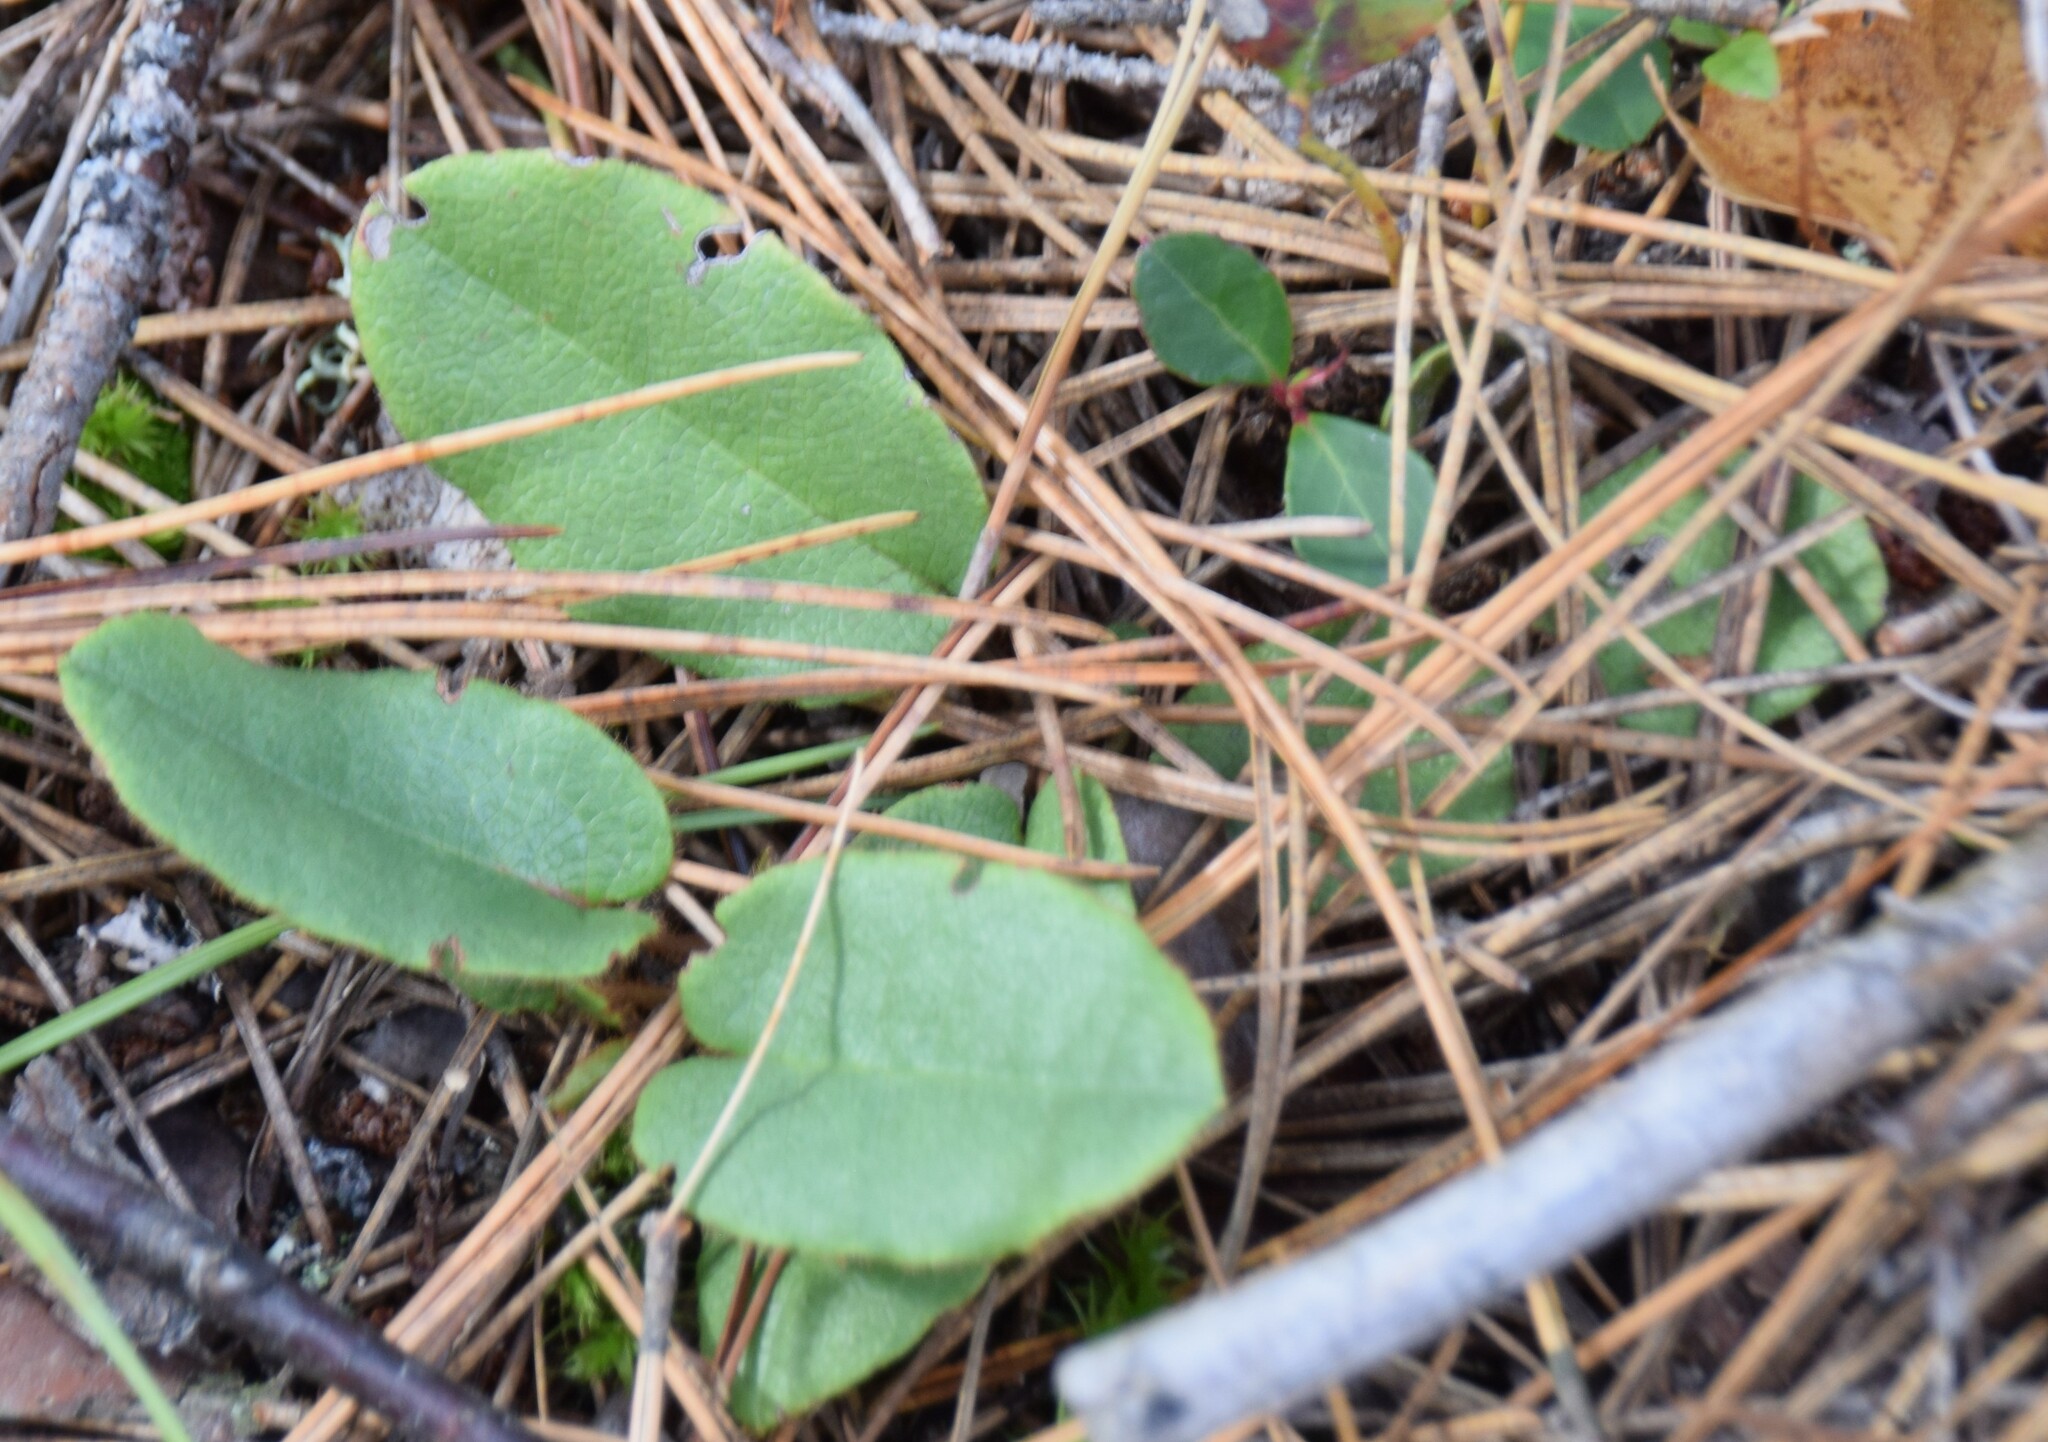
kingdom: Plantae
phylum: Tracheophyta
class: Magnoliopsida
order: Ericales
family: Ericaceae
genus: Epigaea
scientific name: Epigaea repens
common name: Gravelroot
